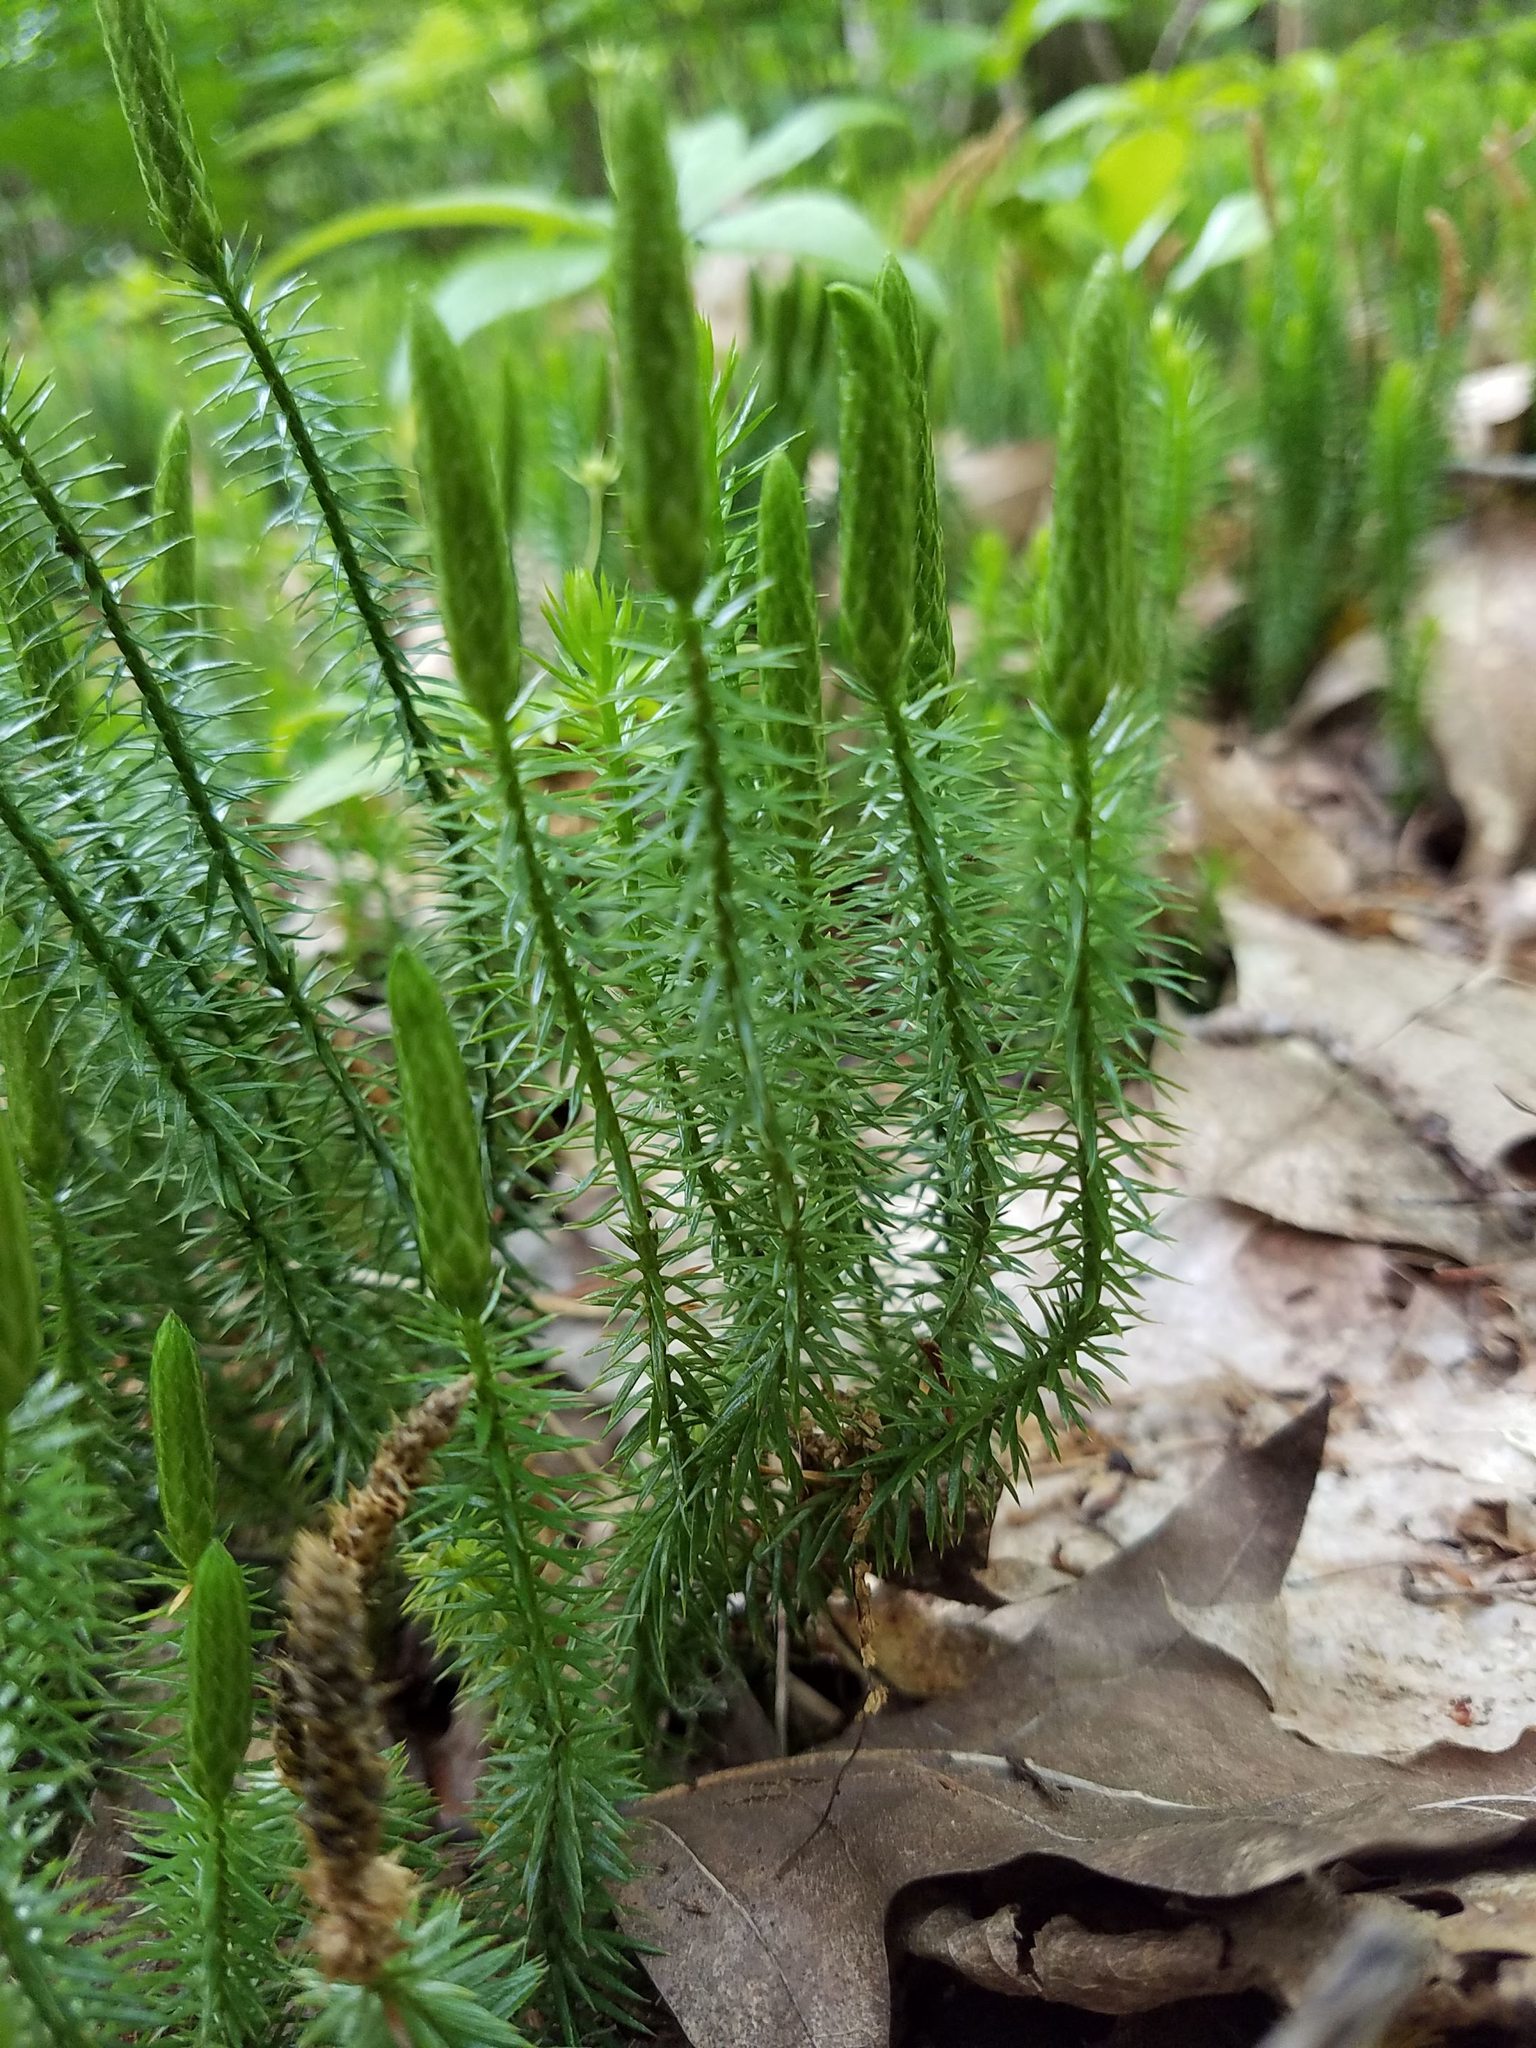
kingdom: Plantae
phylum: Tracheophyta
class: Lycopodiopsida
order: Lycopodiales
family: Lycopodiaceae
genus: Spinulum
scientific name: Spinulum annotinum
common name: Interrupted club-moss
